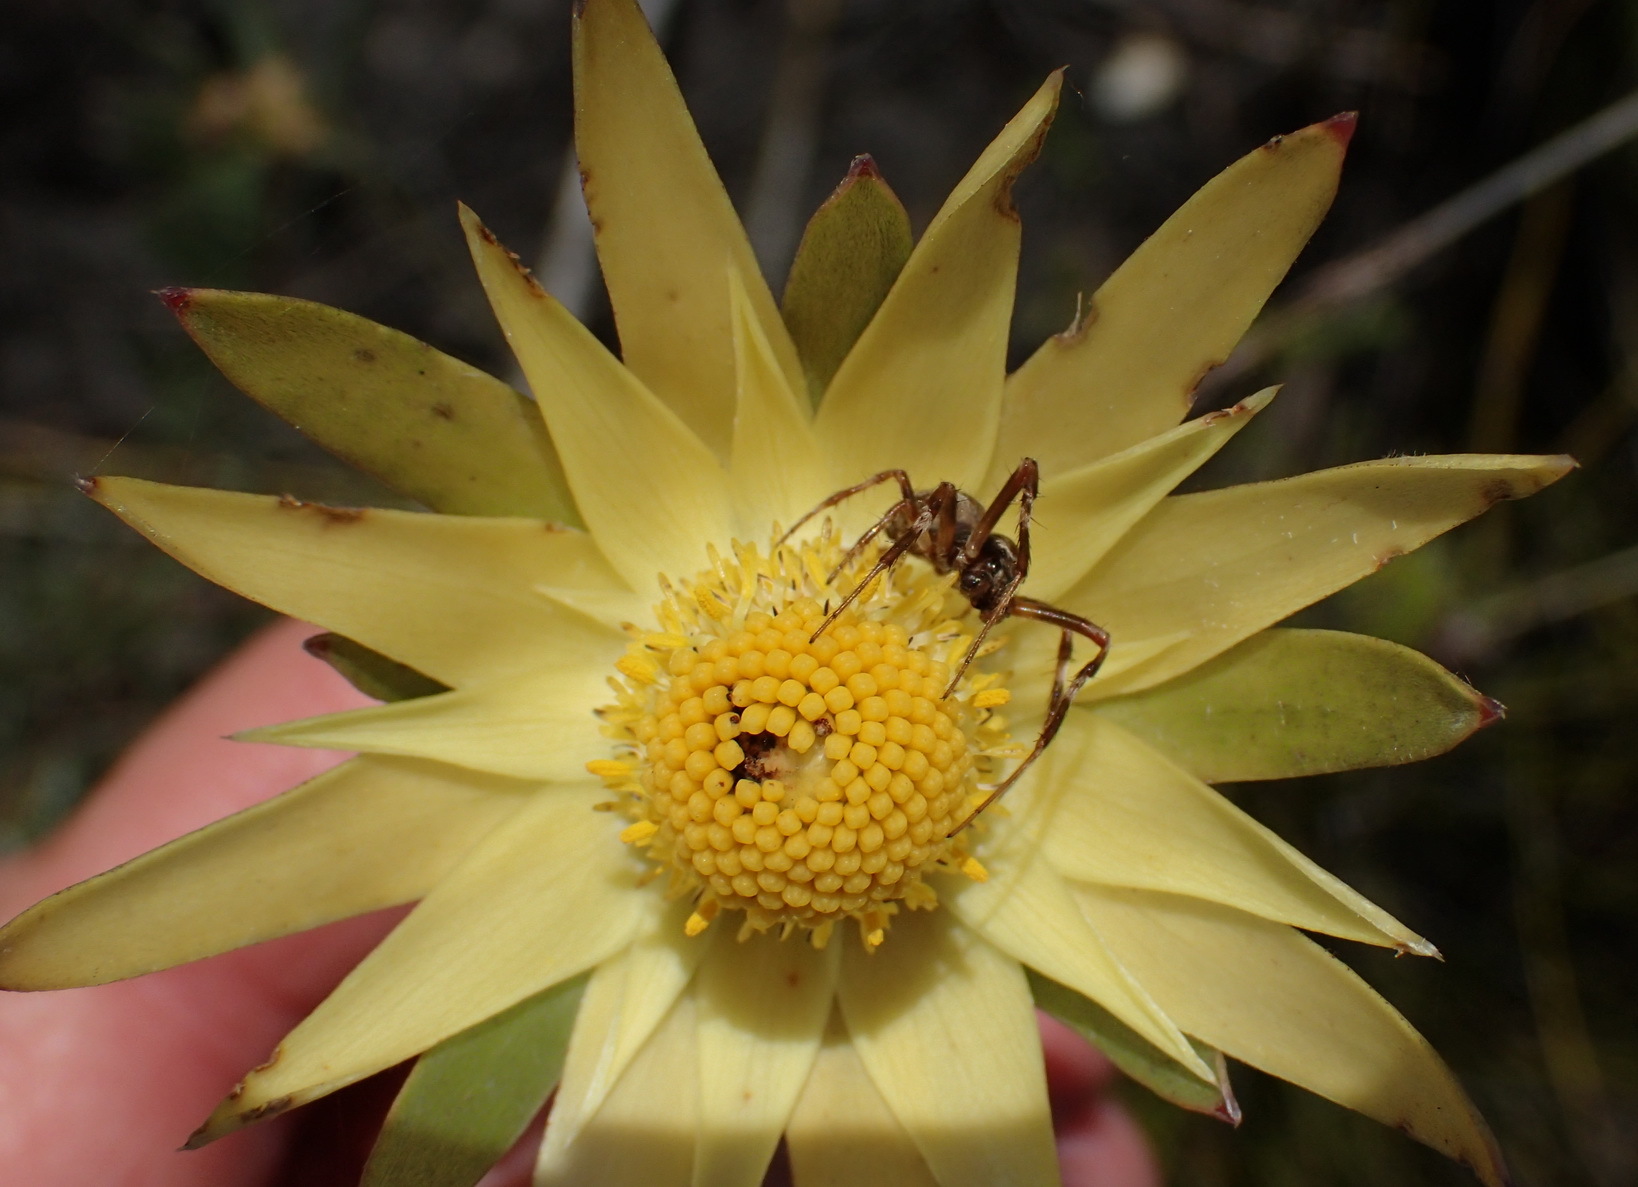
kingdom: Plantae
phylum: Tracheophyta
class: Magnoliopsida
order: Proteales
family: Proteaceae
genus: Leucadendron
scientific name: Leucadendron uliginosum
